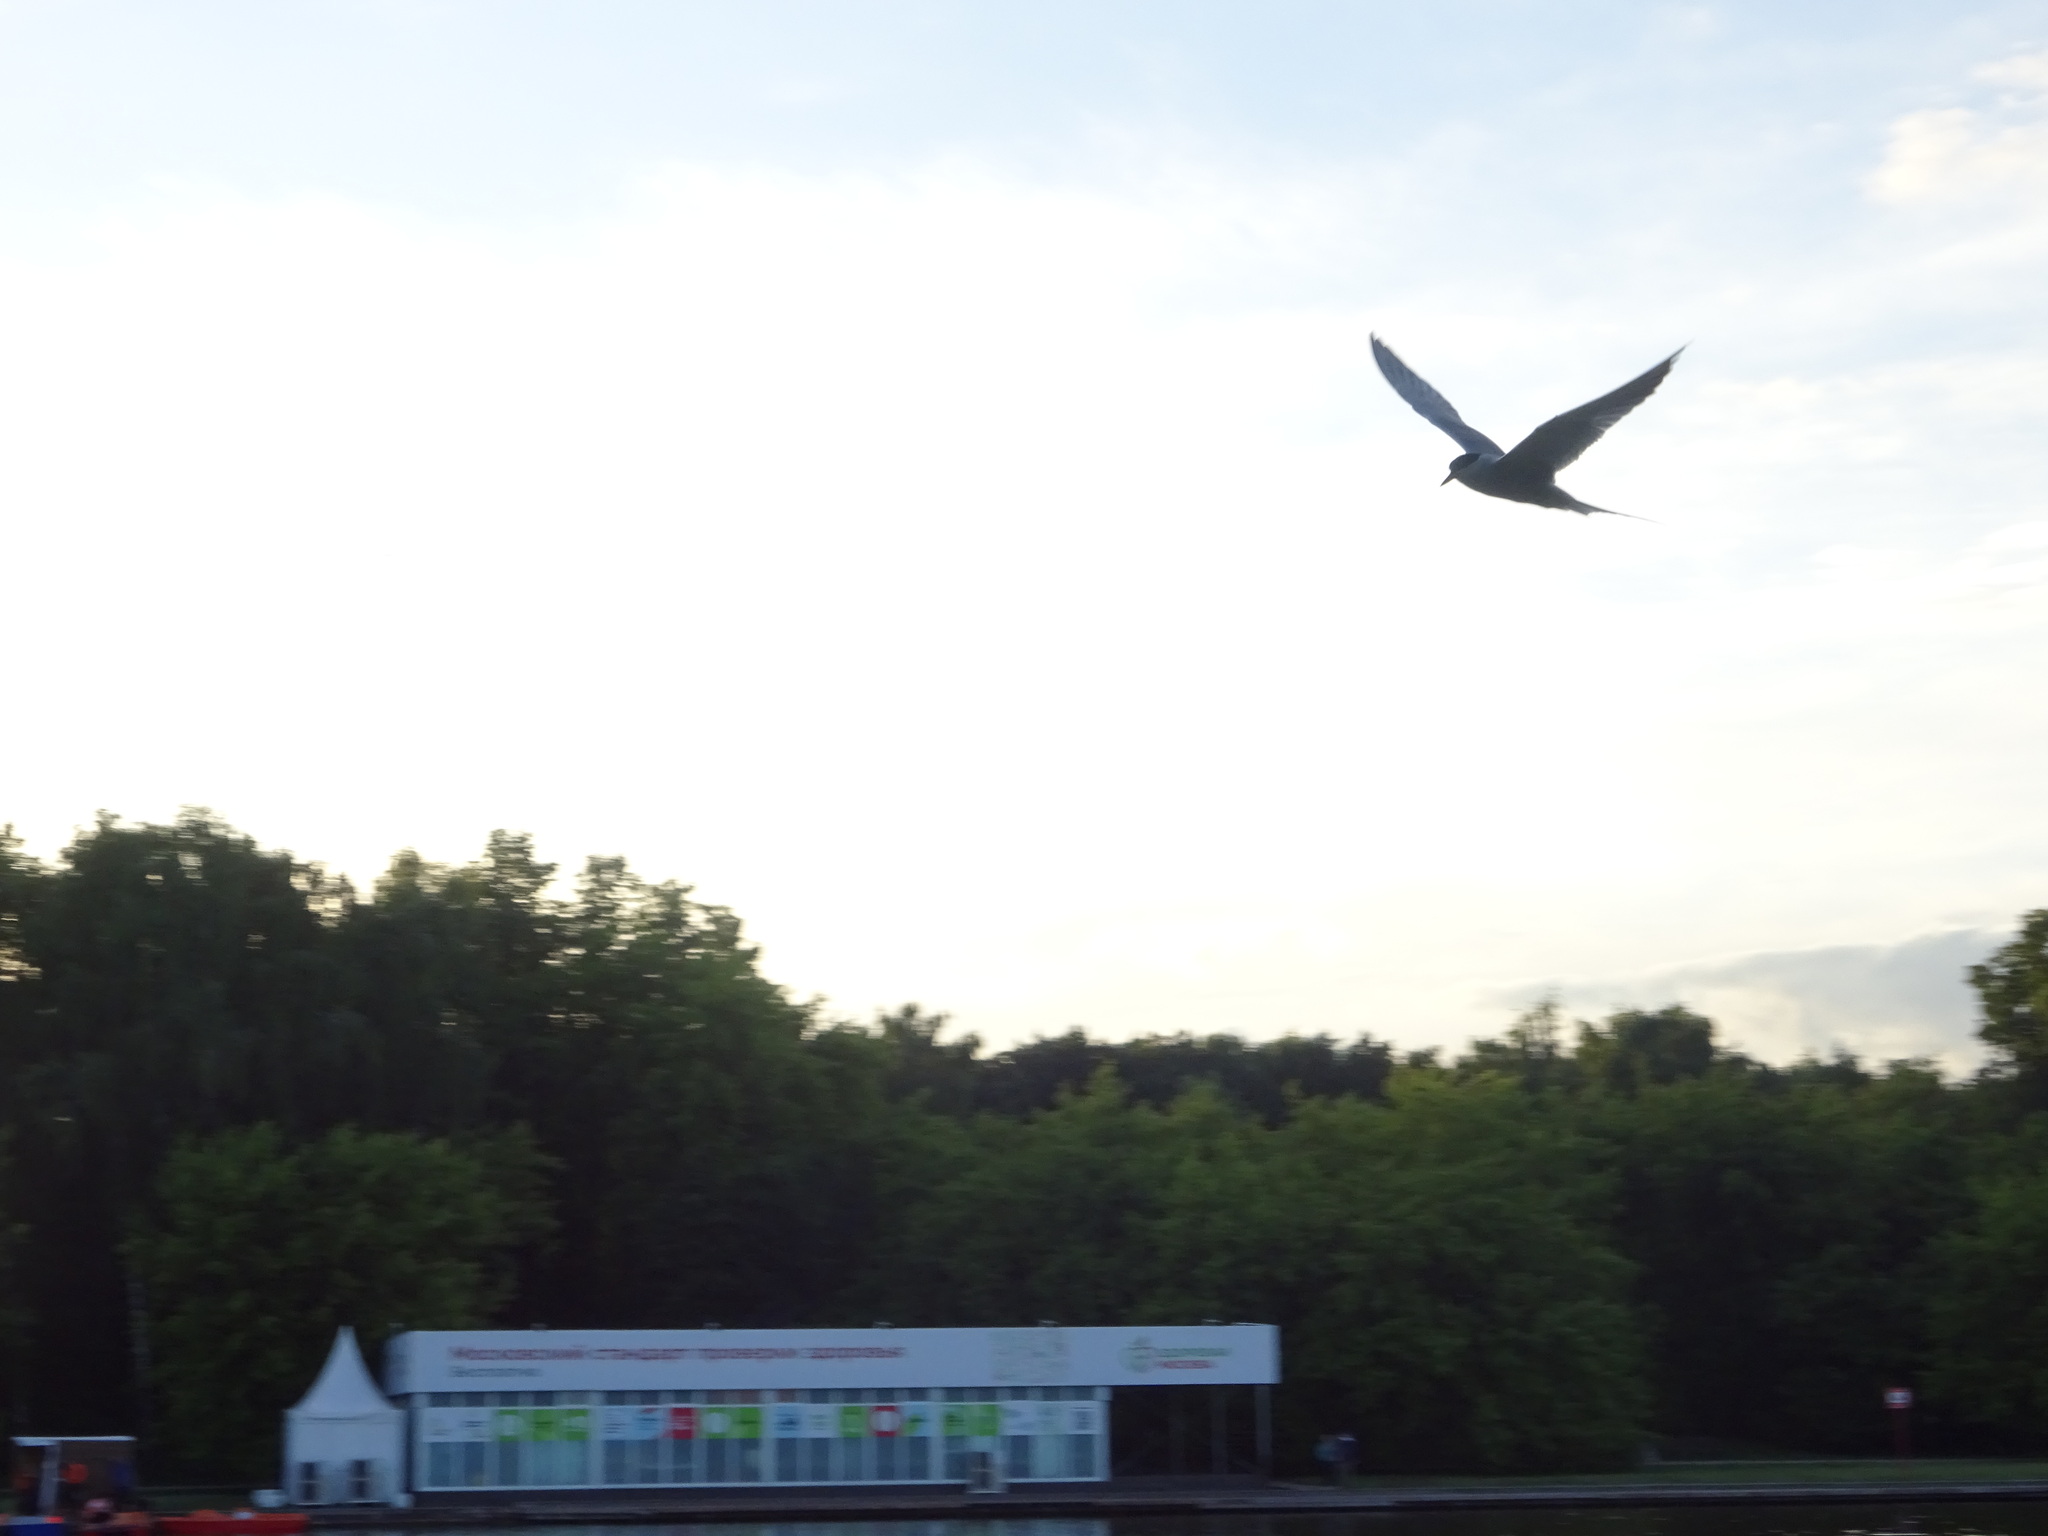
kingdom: Animalia
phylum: Chordata
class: Aves
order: Charadriiformes
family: Laridae
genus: Sterna
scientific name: Sterna hirundo
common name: Common tern
